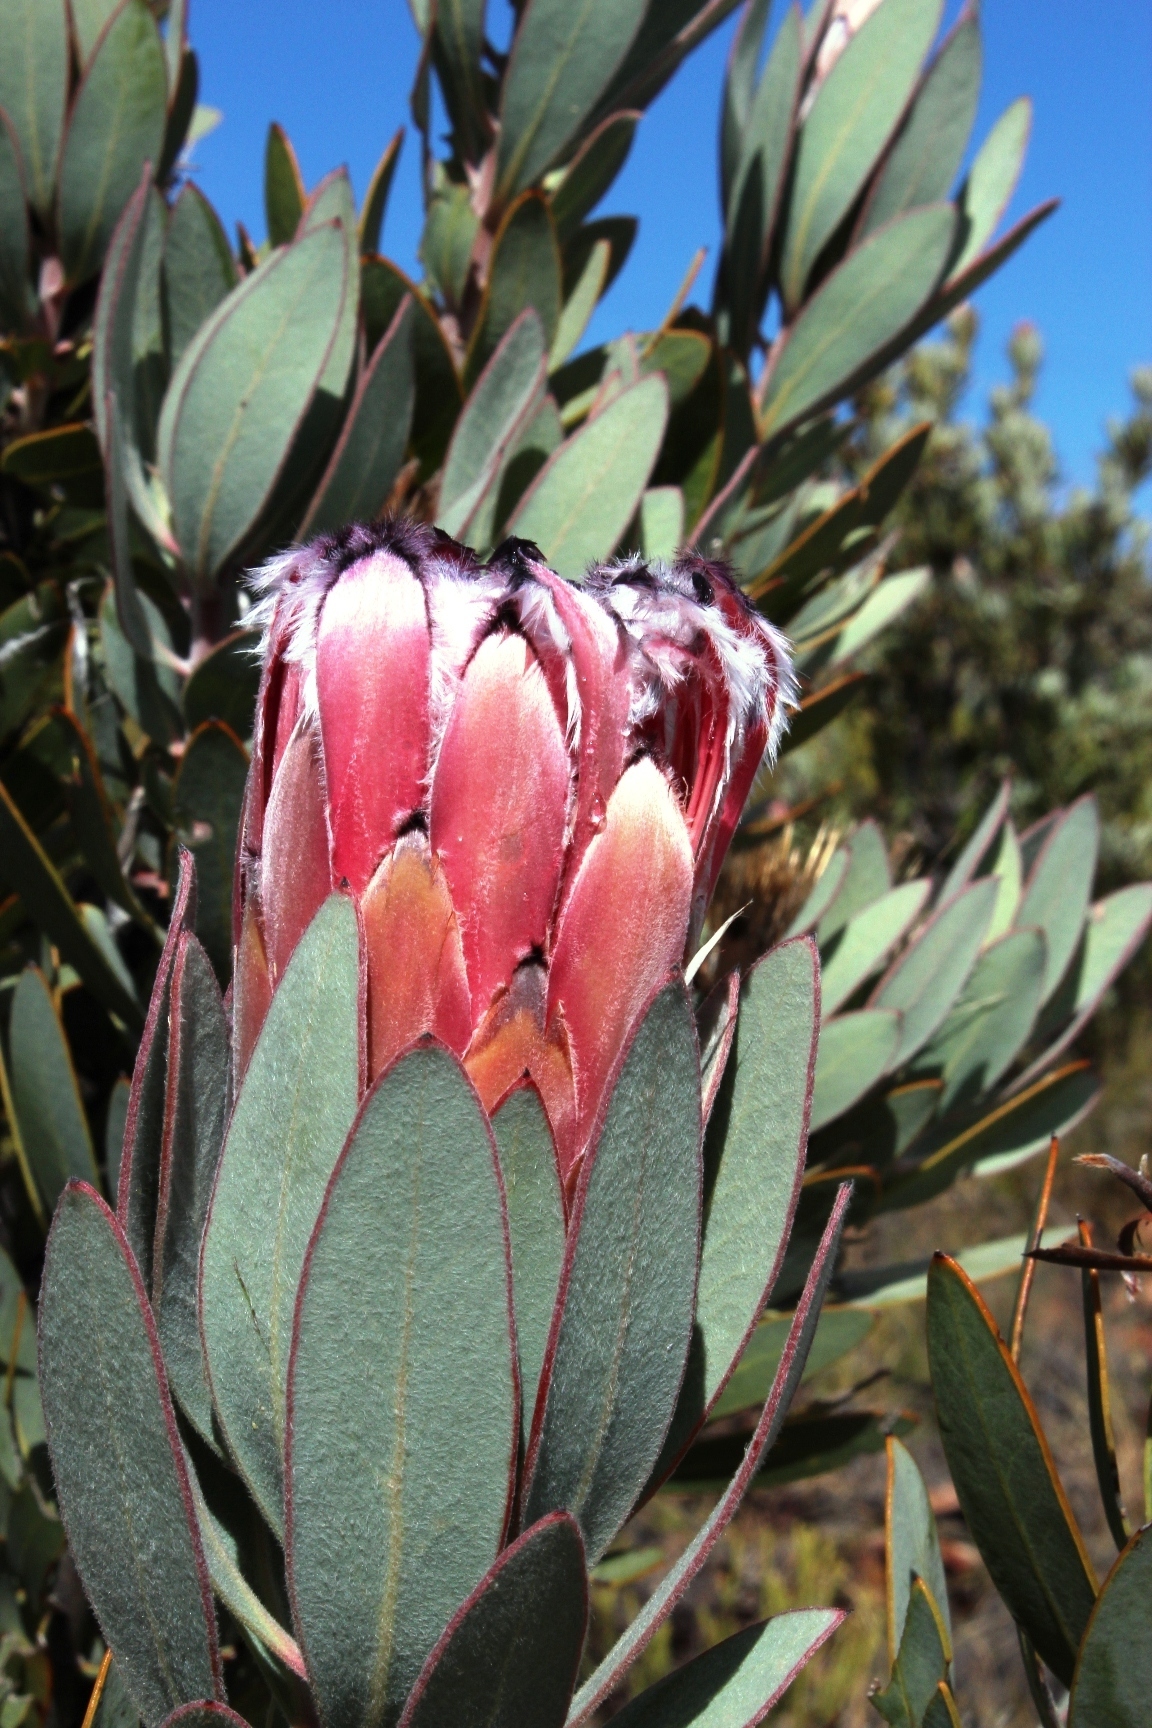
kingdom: Plantae
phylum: Tracheophyta
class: Magnoliopsida
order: Proteales
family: Proteaceae
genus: Protea
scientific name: Protea laurifolia
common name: Grey-leaf sugarbsh
